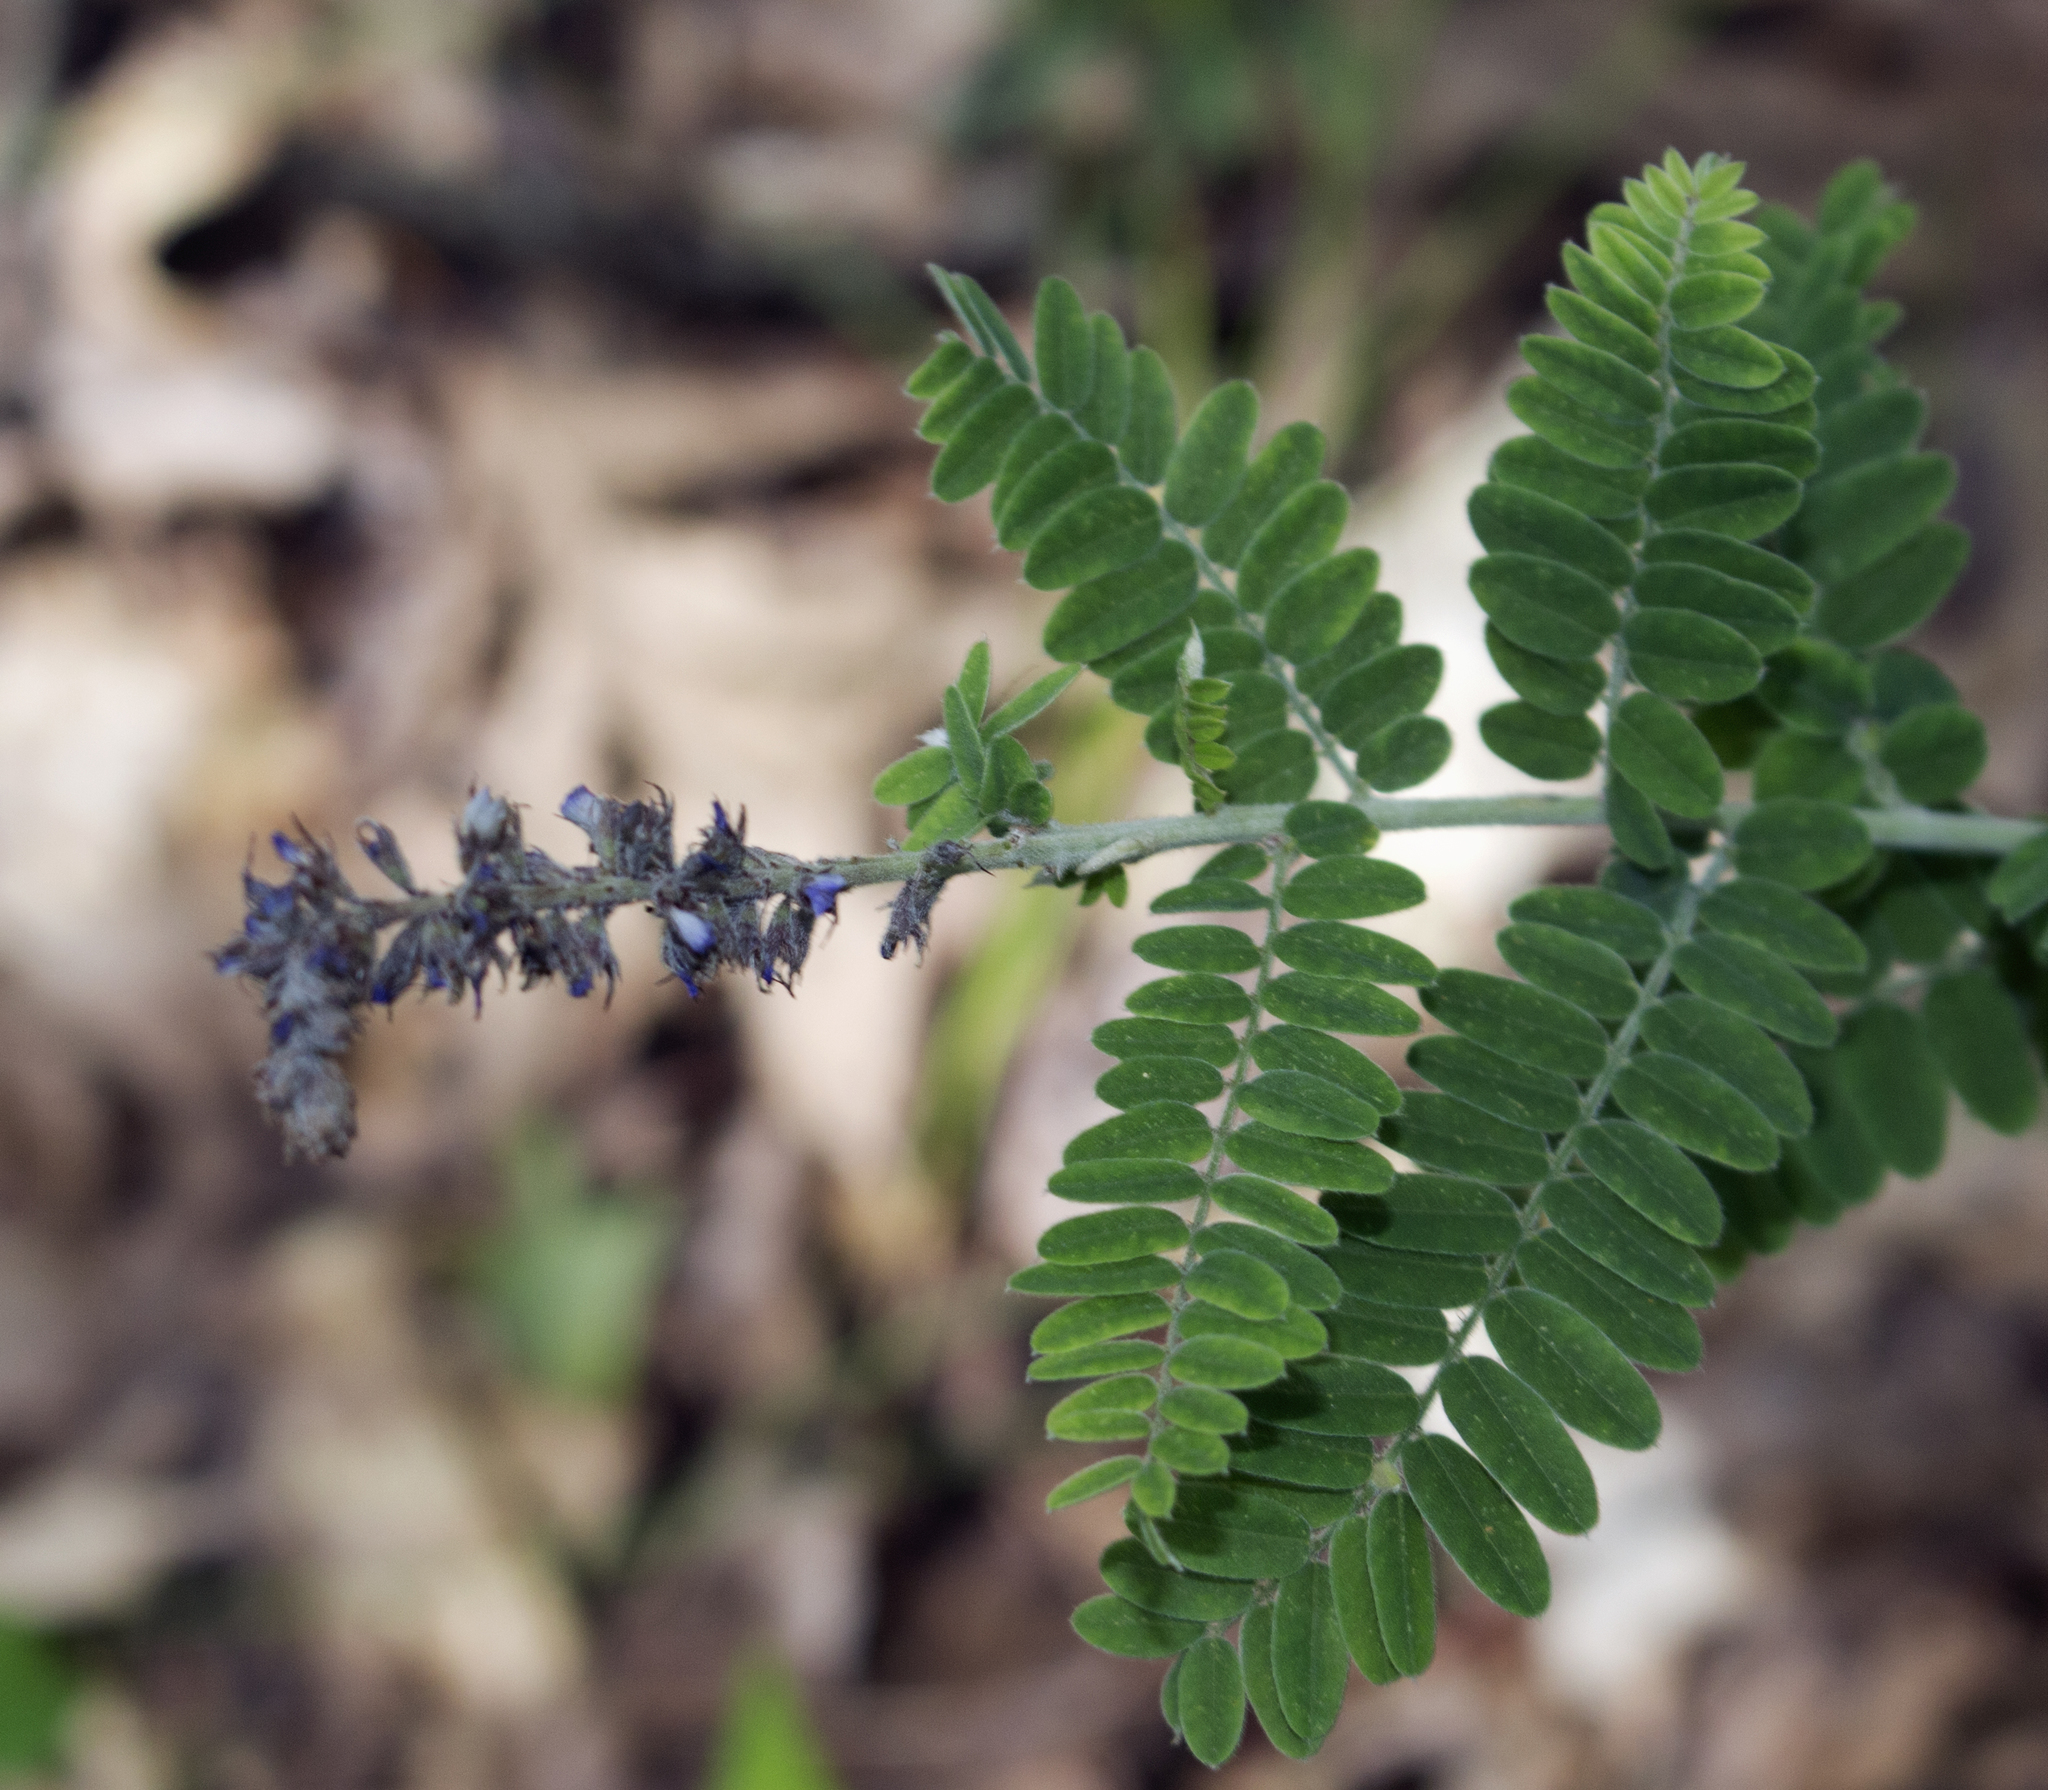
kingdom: Plantae
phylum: Tracheophyta
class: Magnoliopsida
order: Fabales
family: Fabaceae
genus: Amorpha
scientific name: Amorpha canescens
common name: Leadplant
